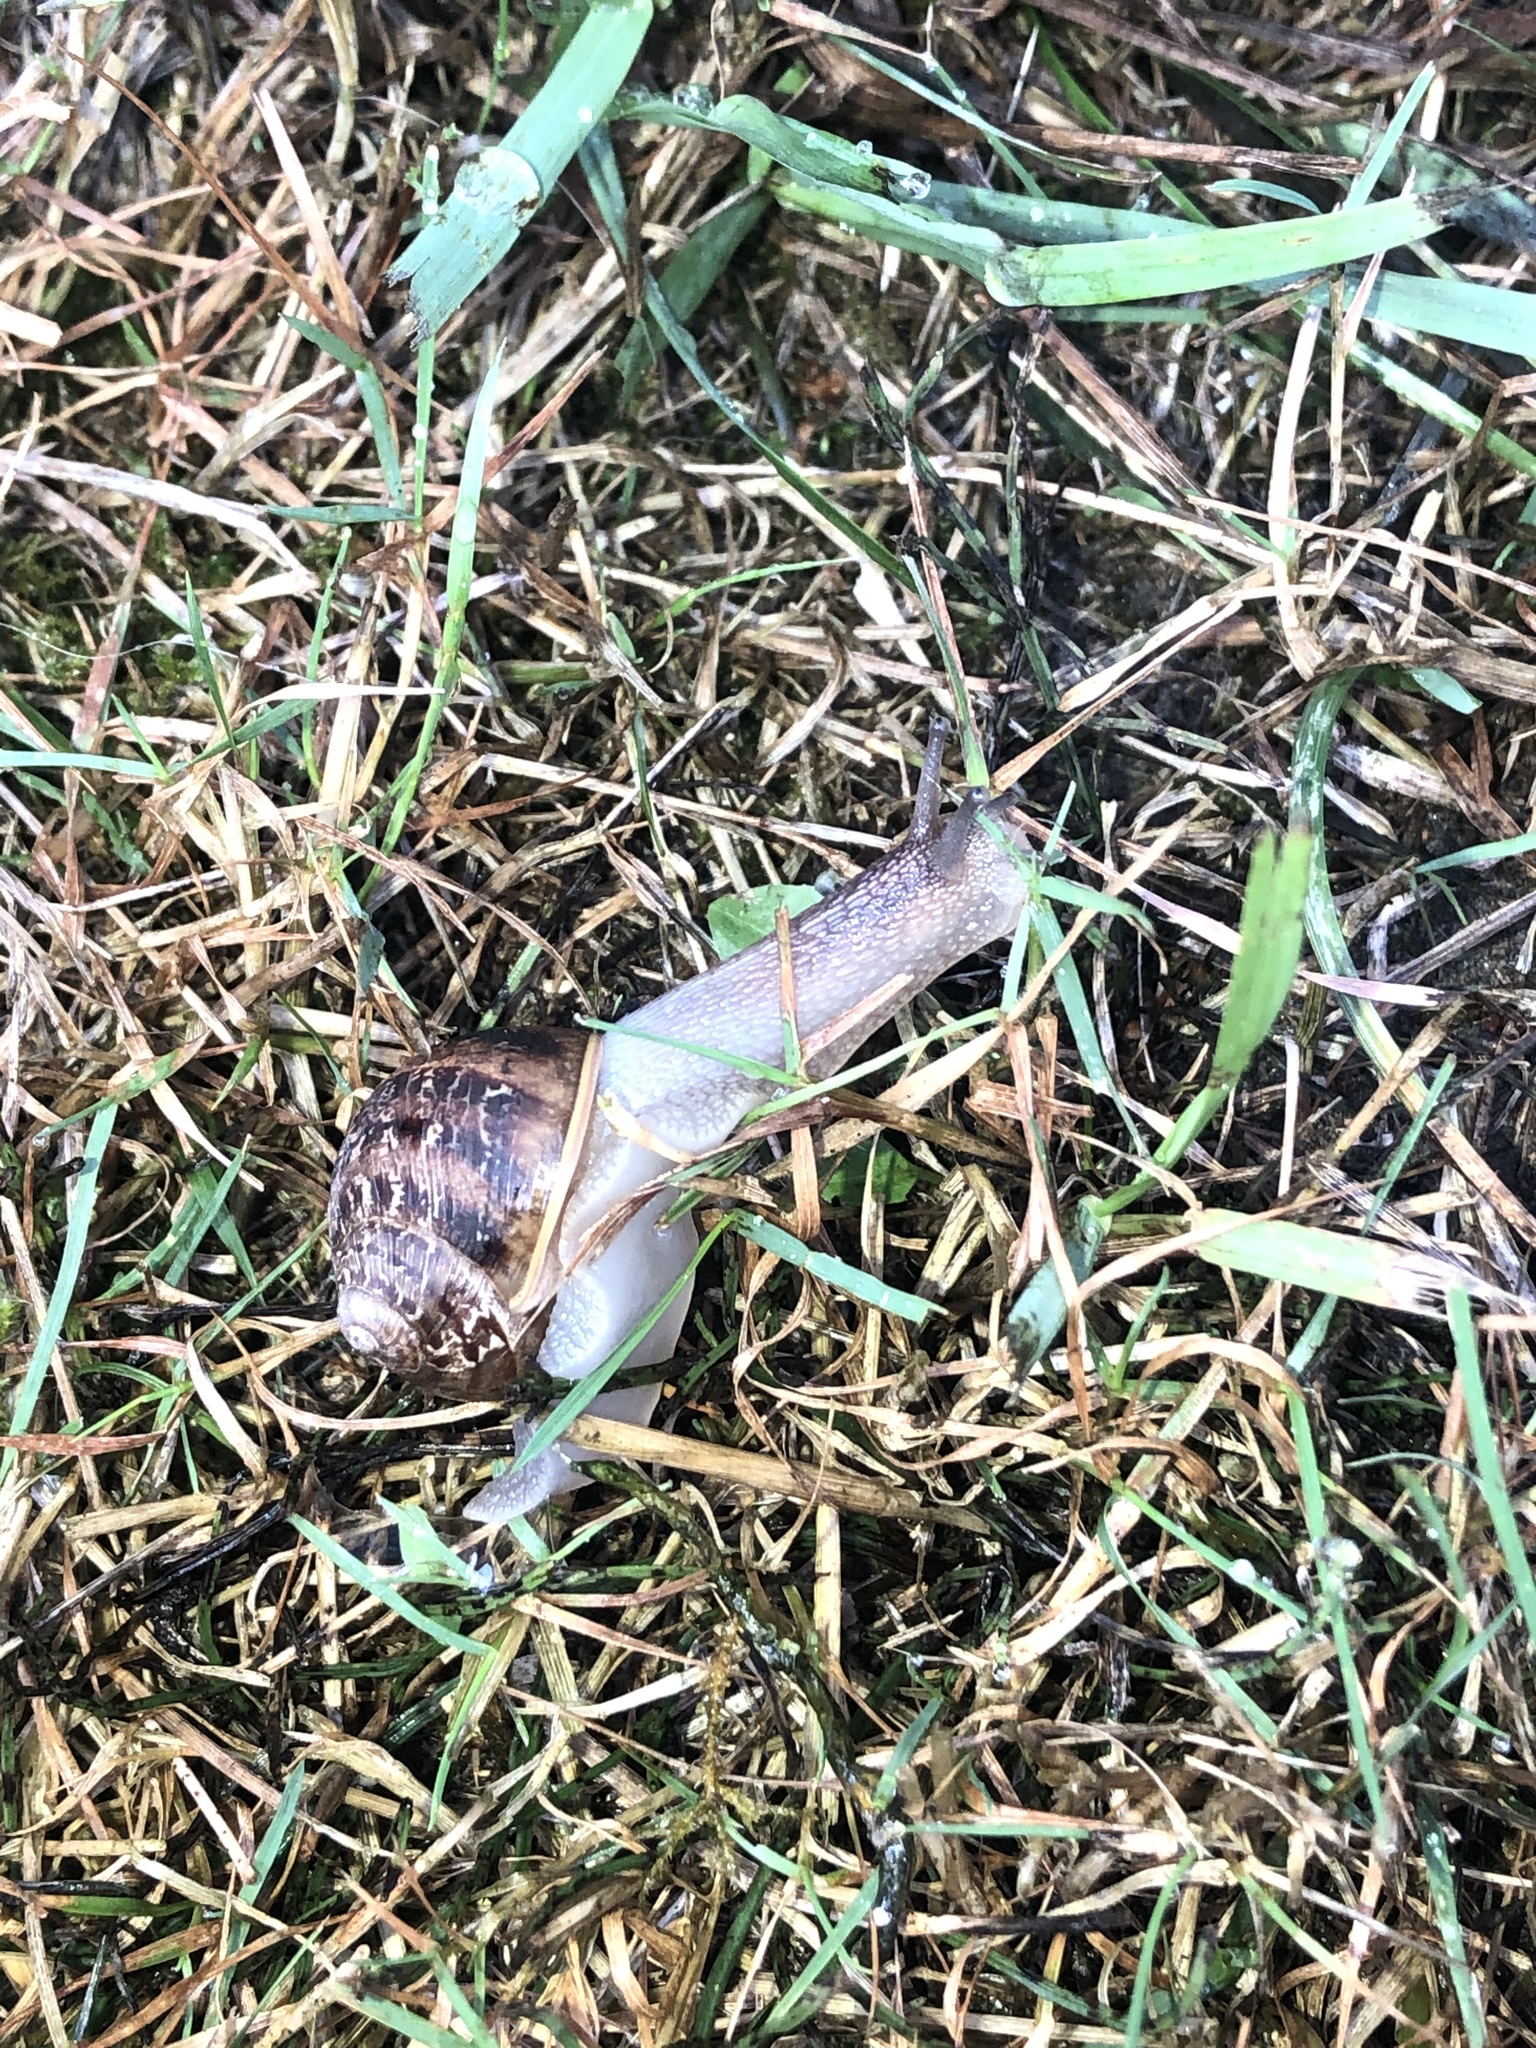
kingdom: Animalia
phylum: Mollusca
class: Gastropoda
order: Stylommatophora
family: Helicidae
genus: Cornu
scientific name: Cornu aspersum
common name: Brown garden snail
